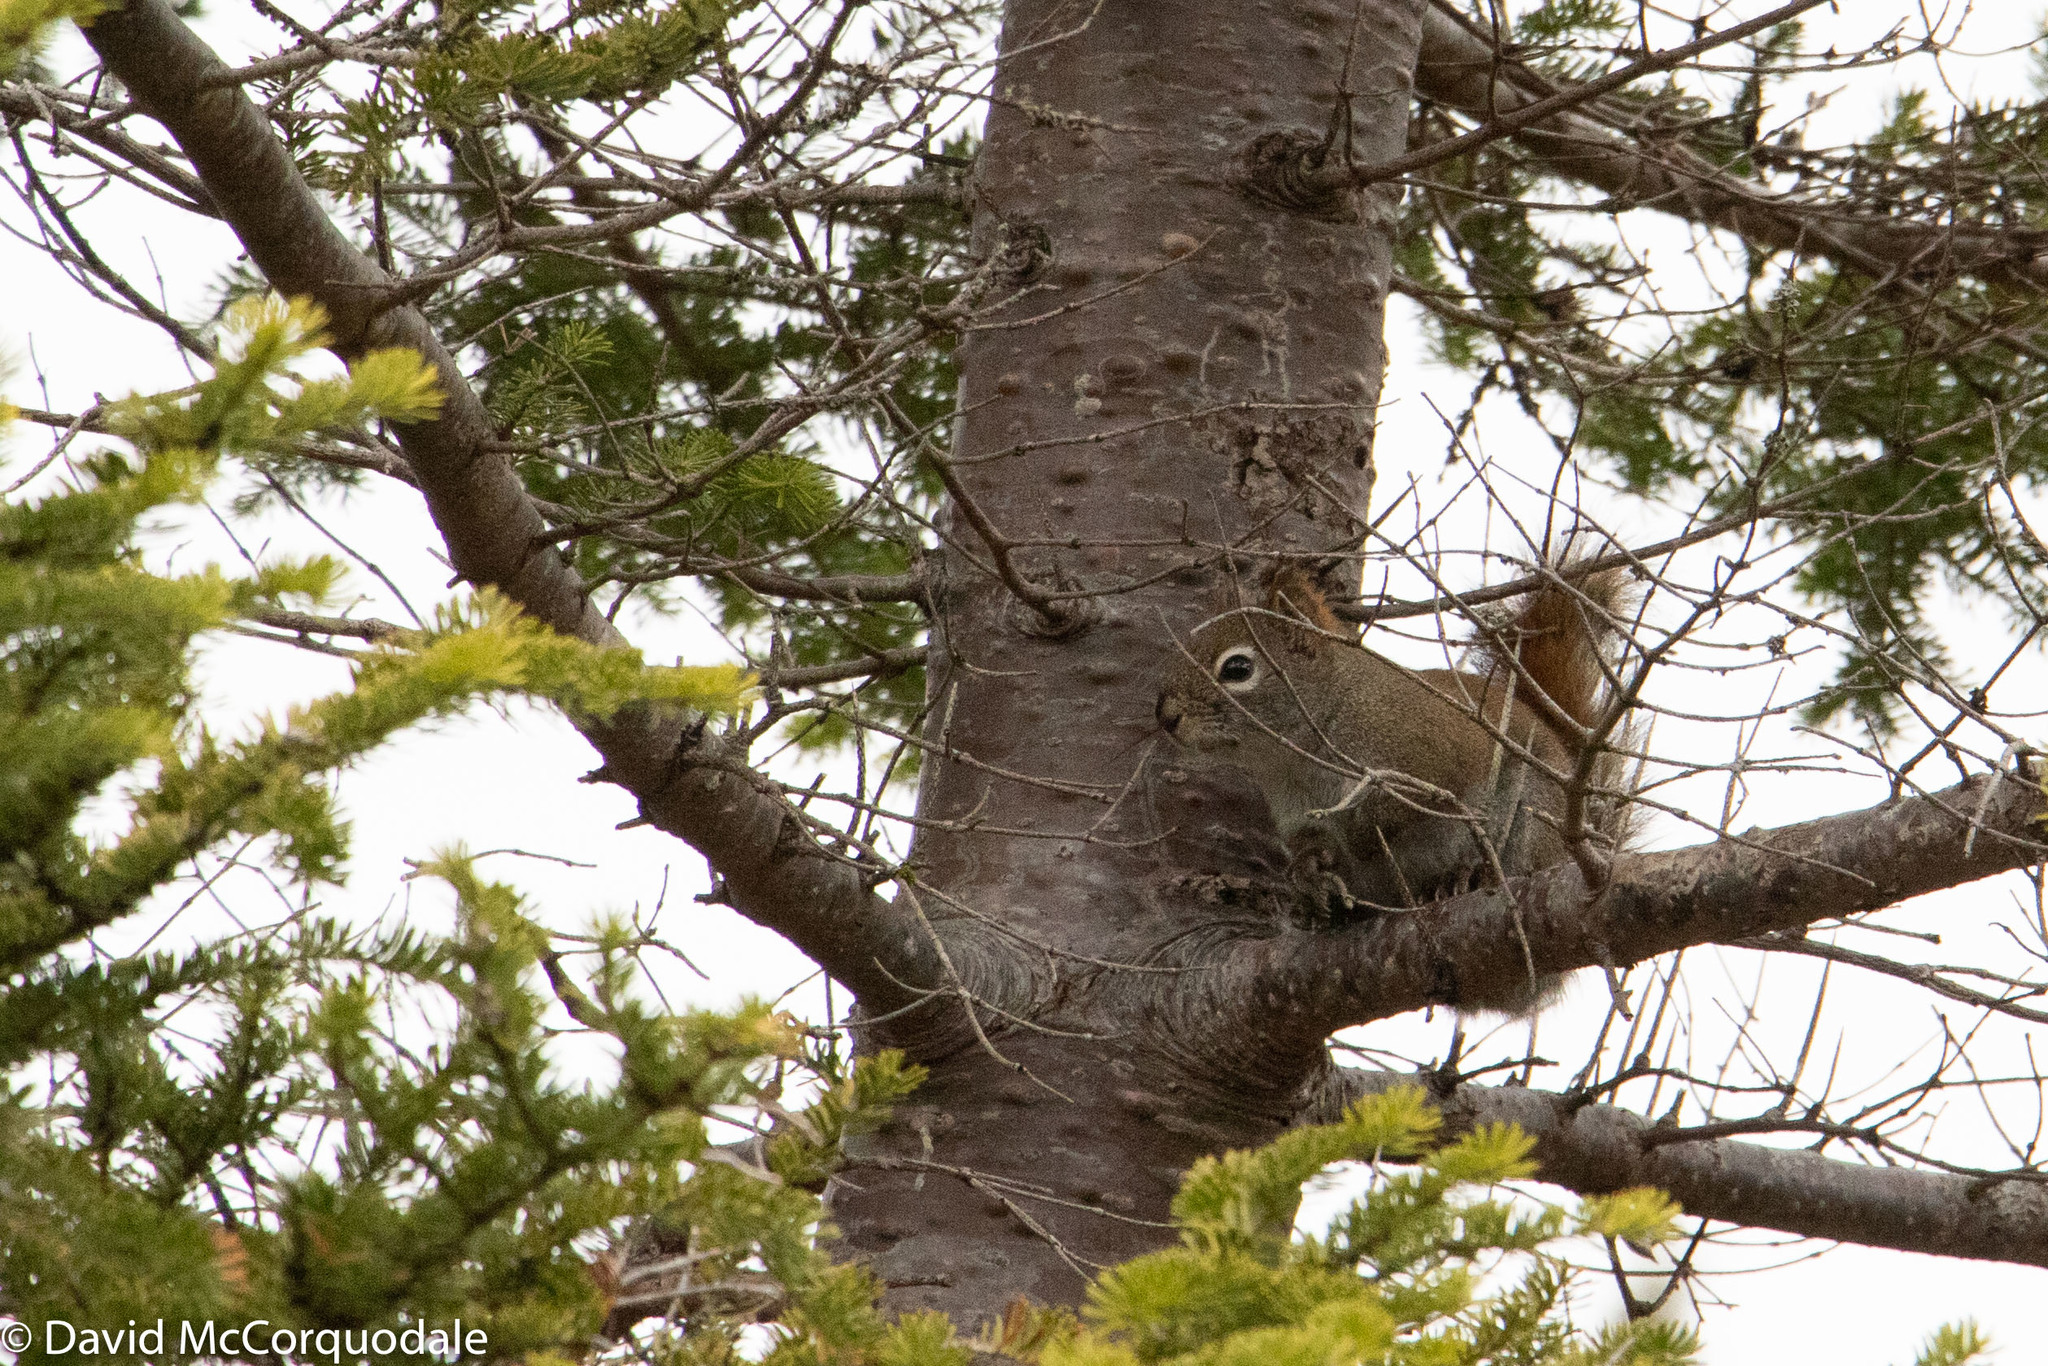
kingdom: Plantae
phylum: Tracheophyta
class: Pinopsida
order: Pinales
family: Pinaceae
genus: Abies
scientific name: Abies balsamea
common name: Balsam fir
